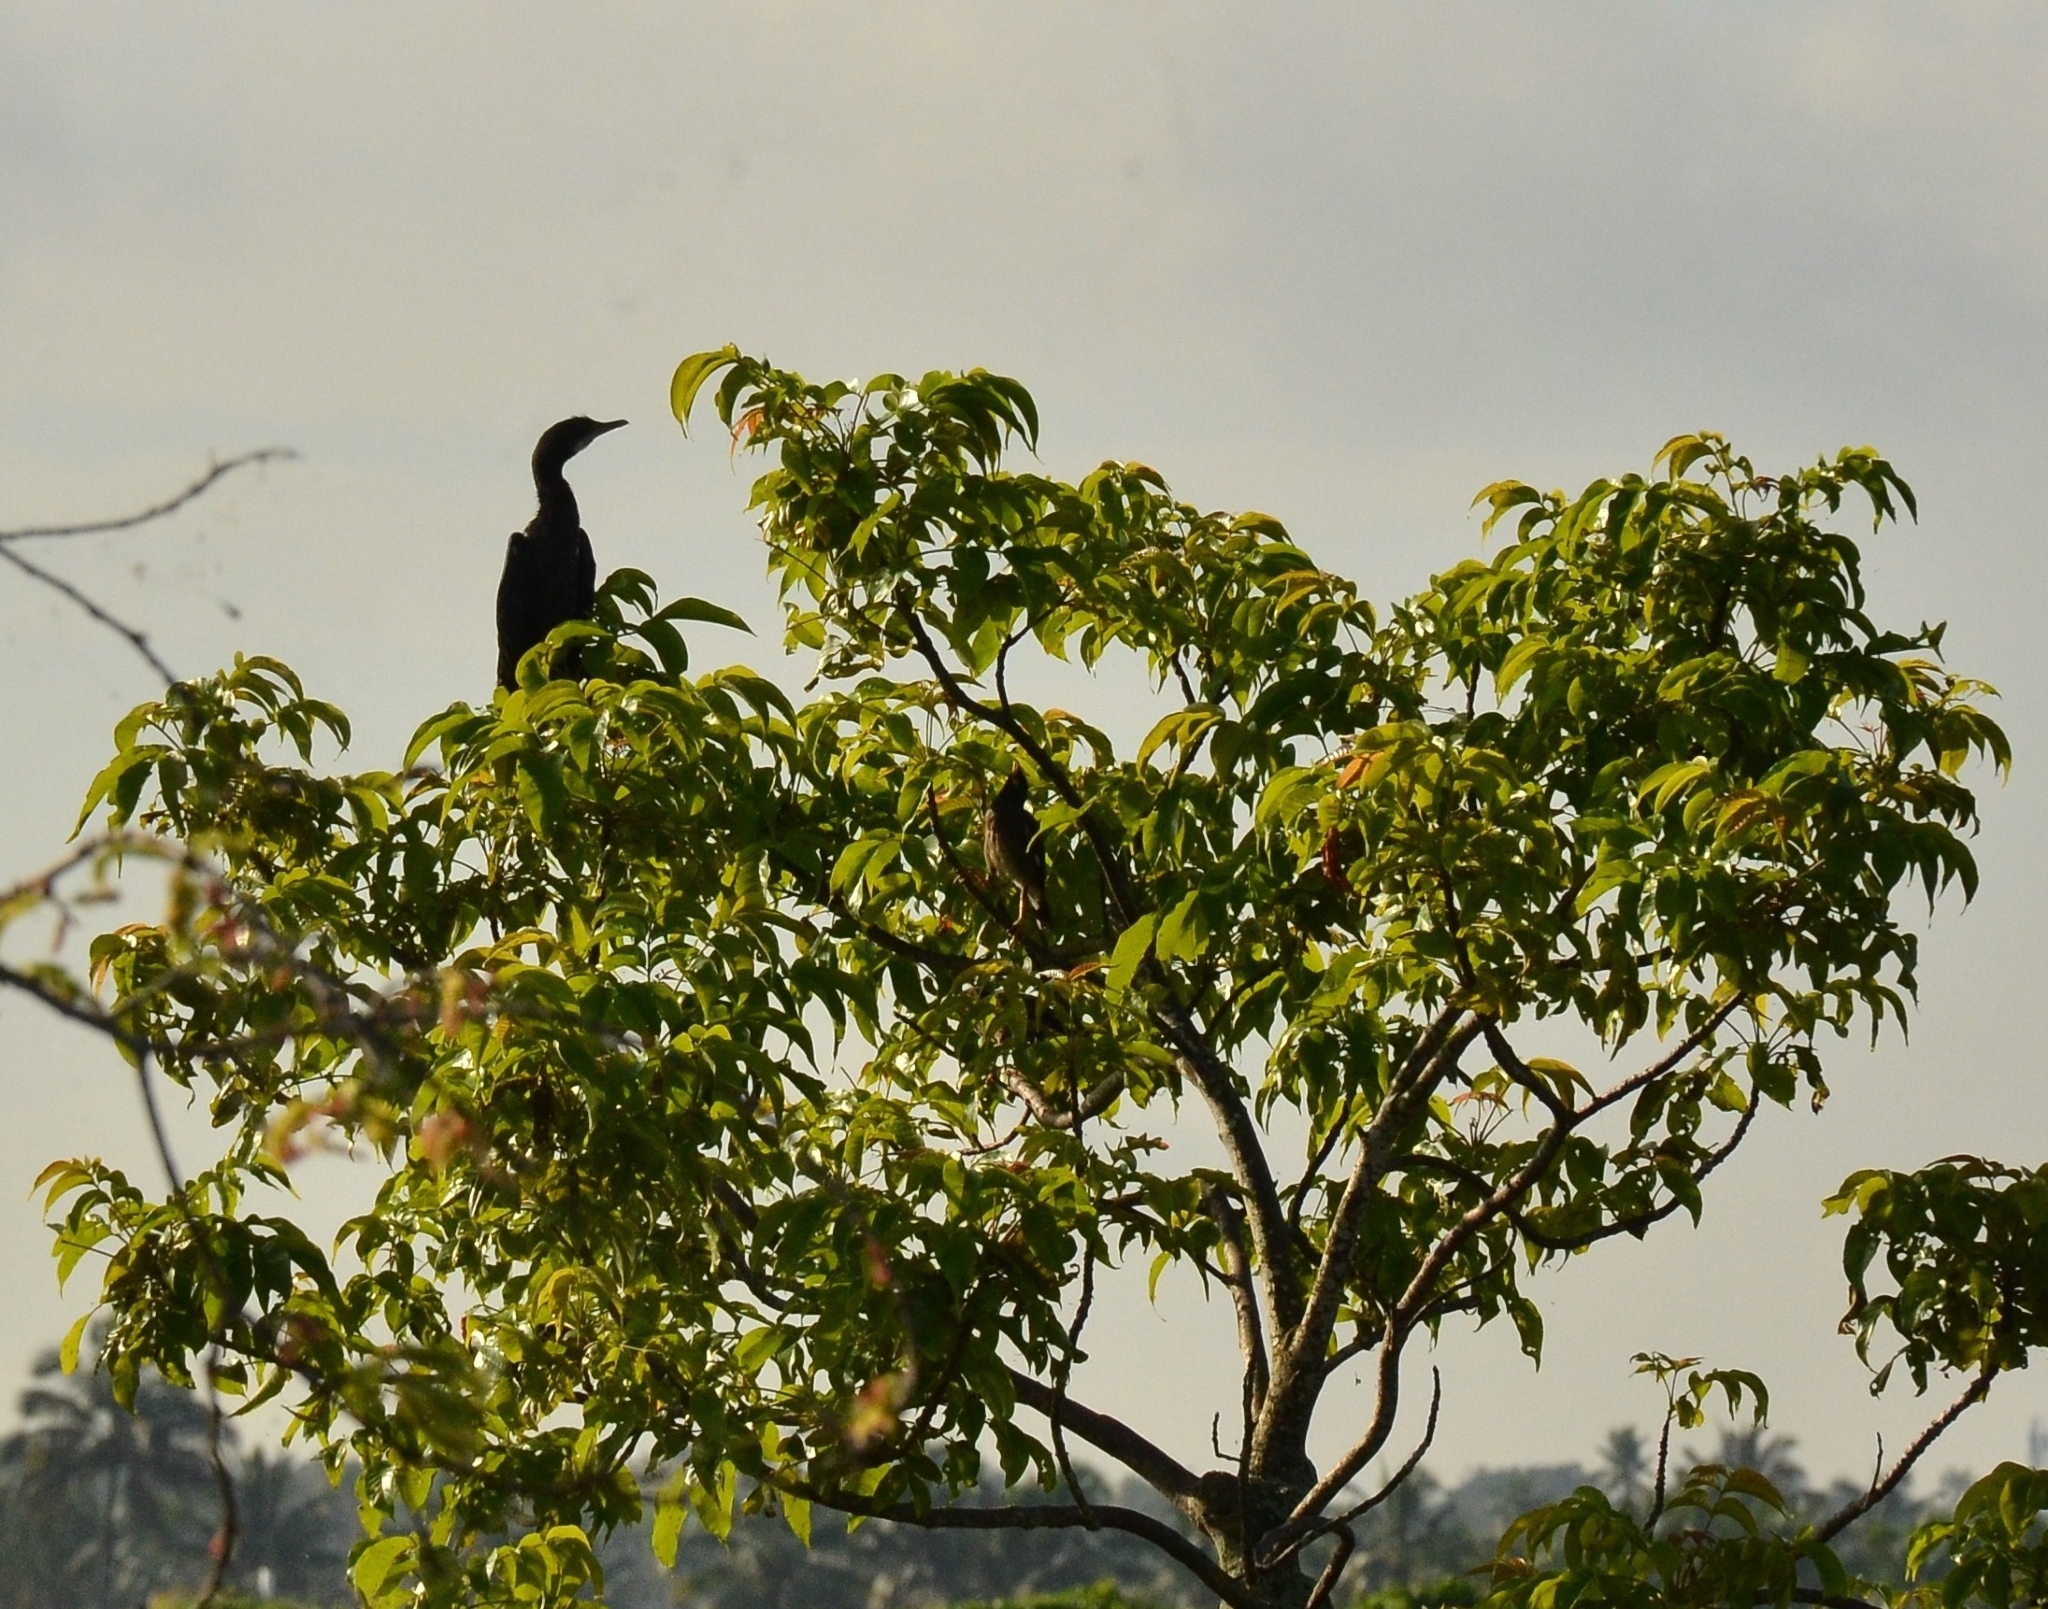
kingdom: Animalia
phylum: Chordata
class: Aves
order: Suliformes
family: Phalacrocoracidae
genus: Microcarbo
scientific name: Microcarbo niger
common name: Little cormorant
